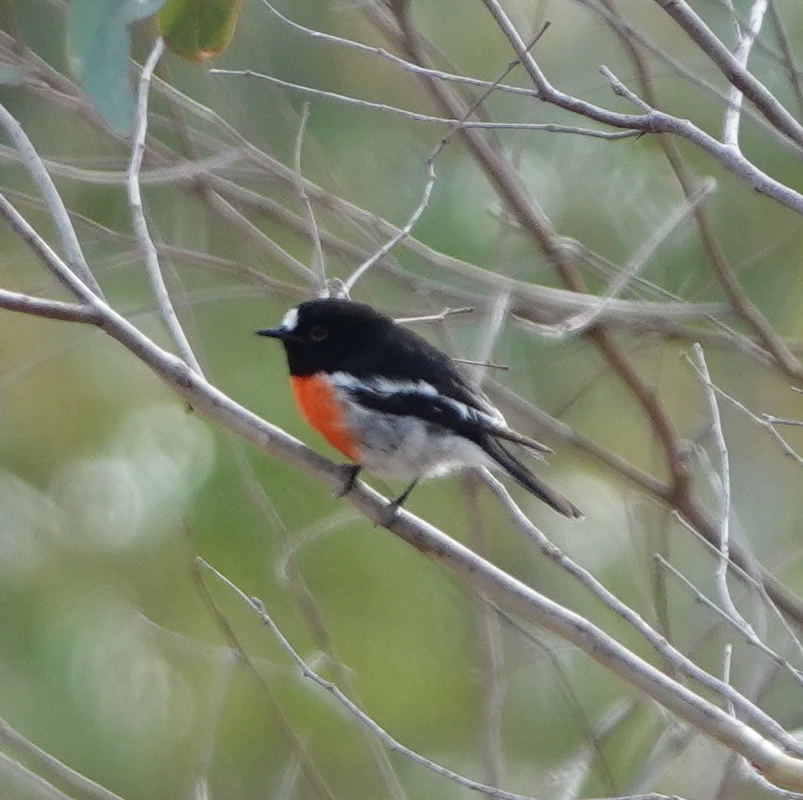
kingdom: Animalia
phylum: Chordata
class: Aves
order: Passeriformes
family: Petroicidae
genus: Petroica
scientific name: Petroica boodang
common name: Scarlet robin
